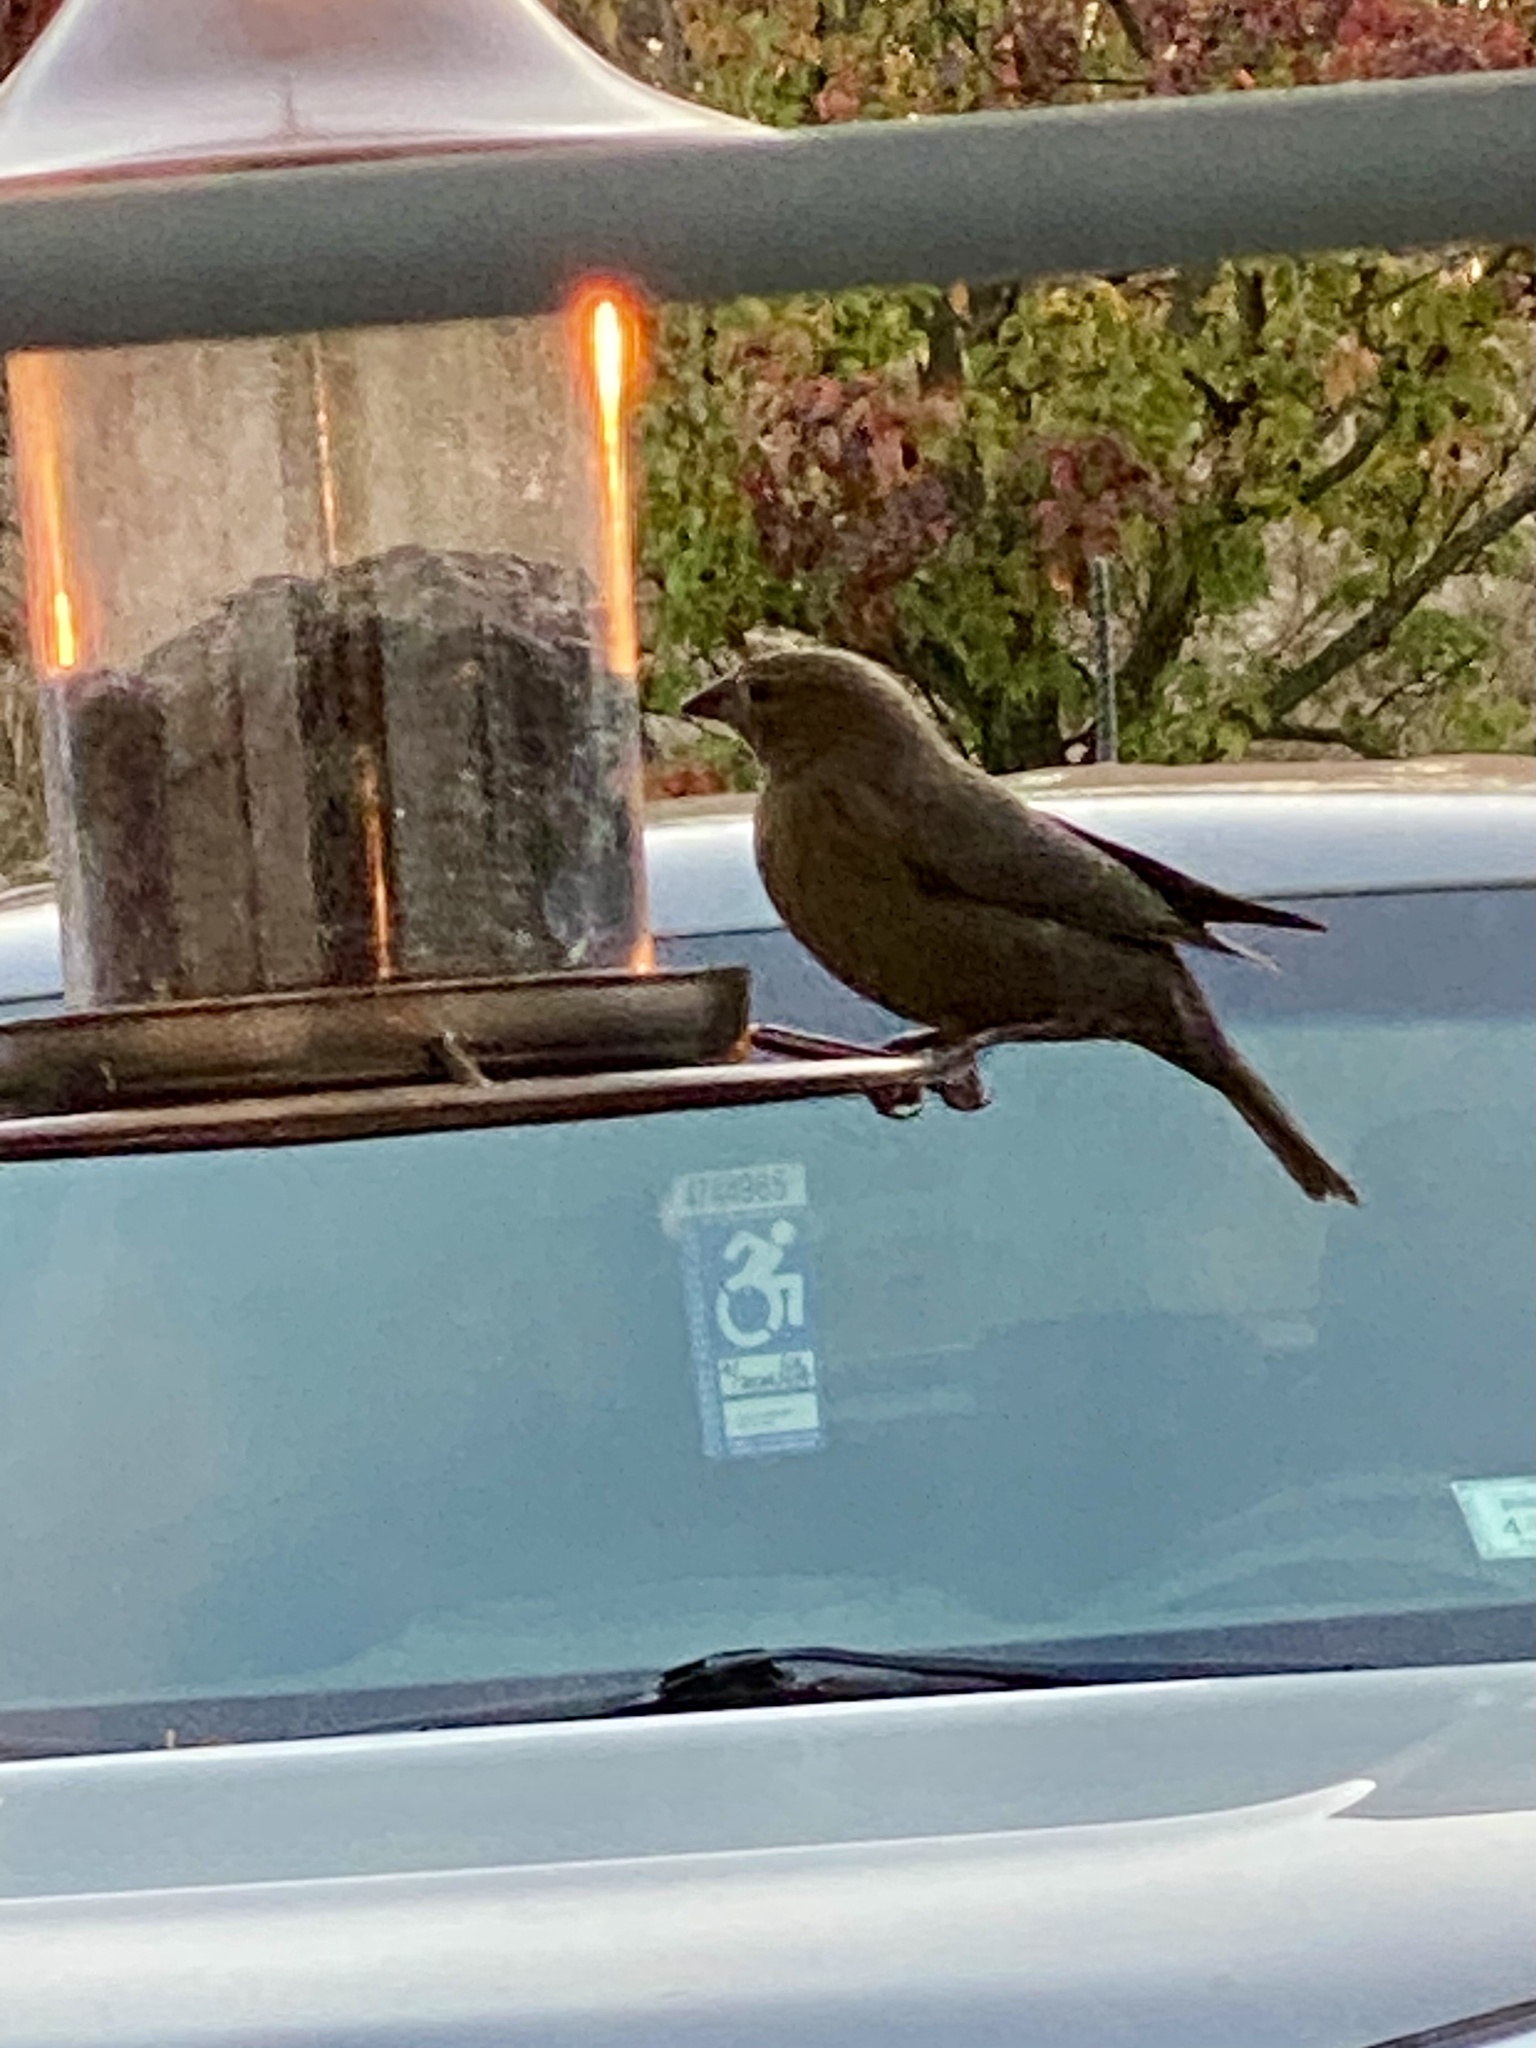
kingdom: Animalia
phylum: Chordata
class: Aves
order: Passeriformes
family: Icteridae
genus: Molothrus
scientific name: Molothrus ater
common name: Brown-headed cowbird
